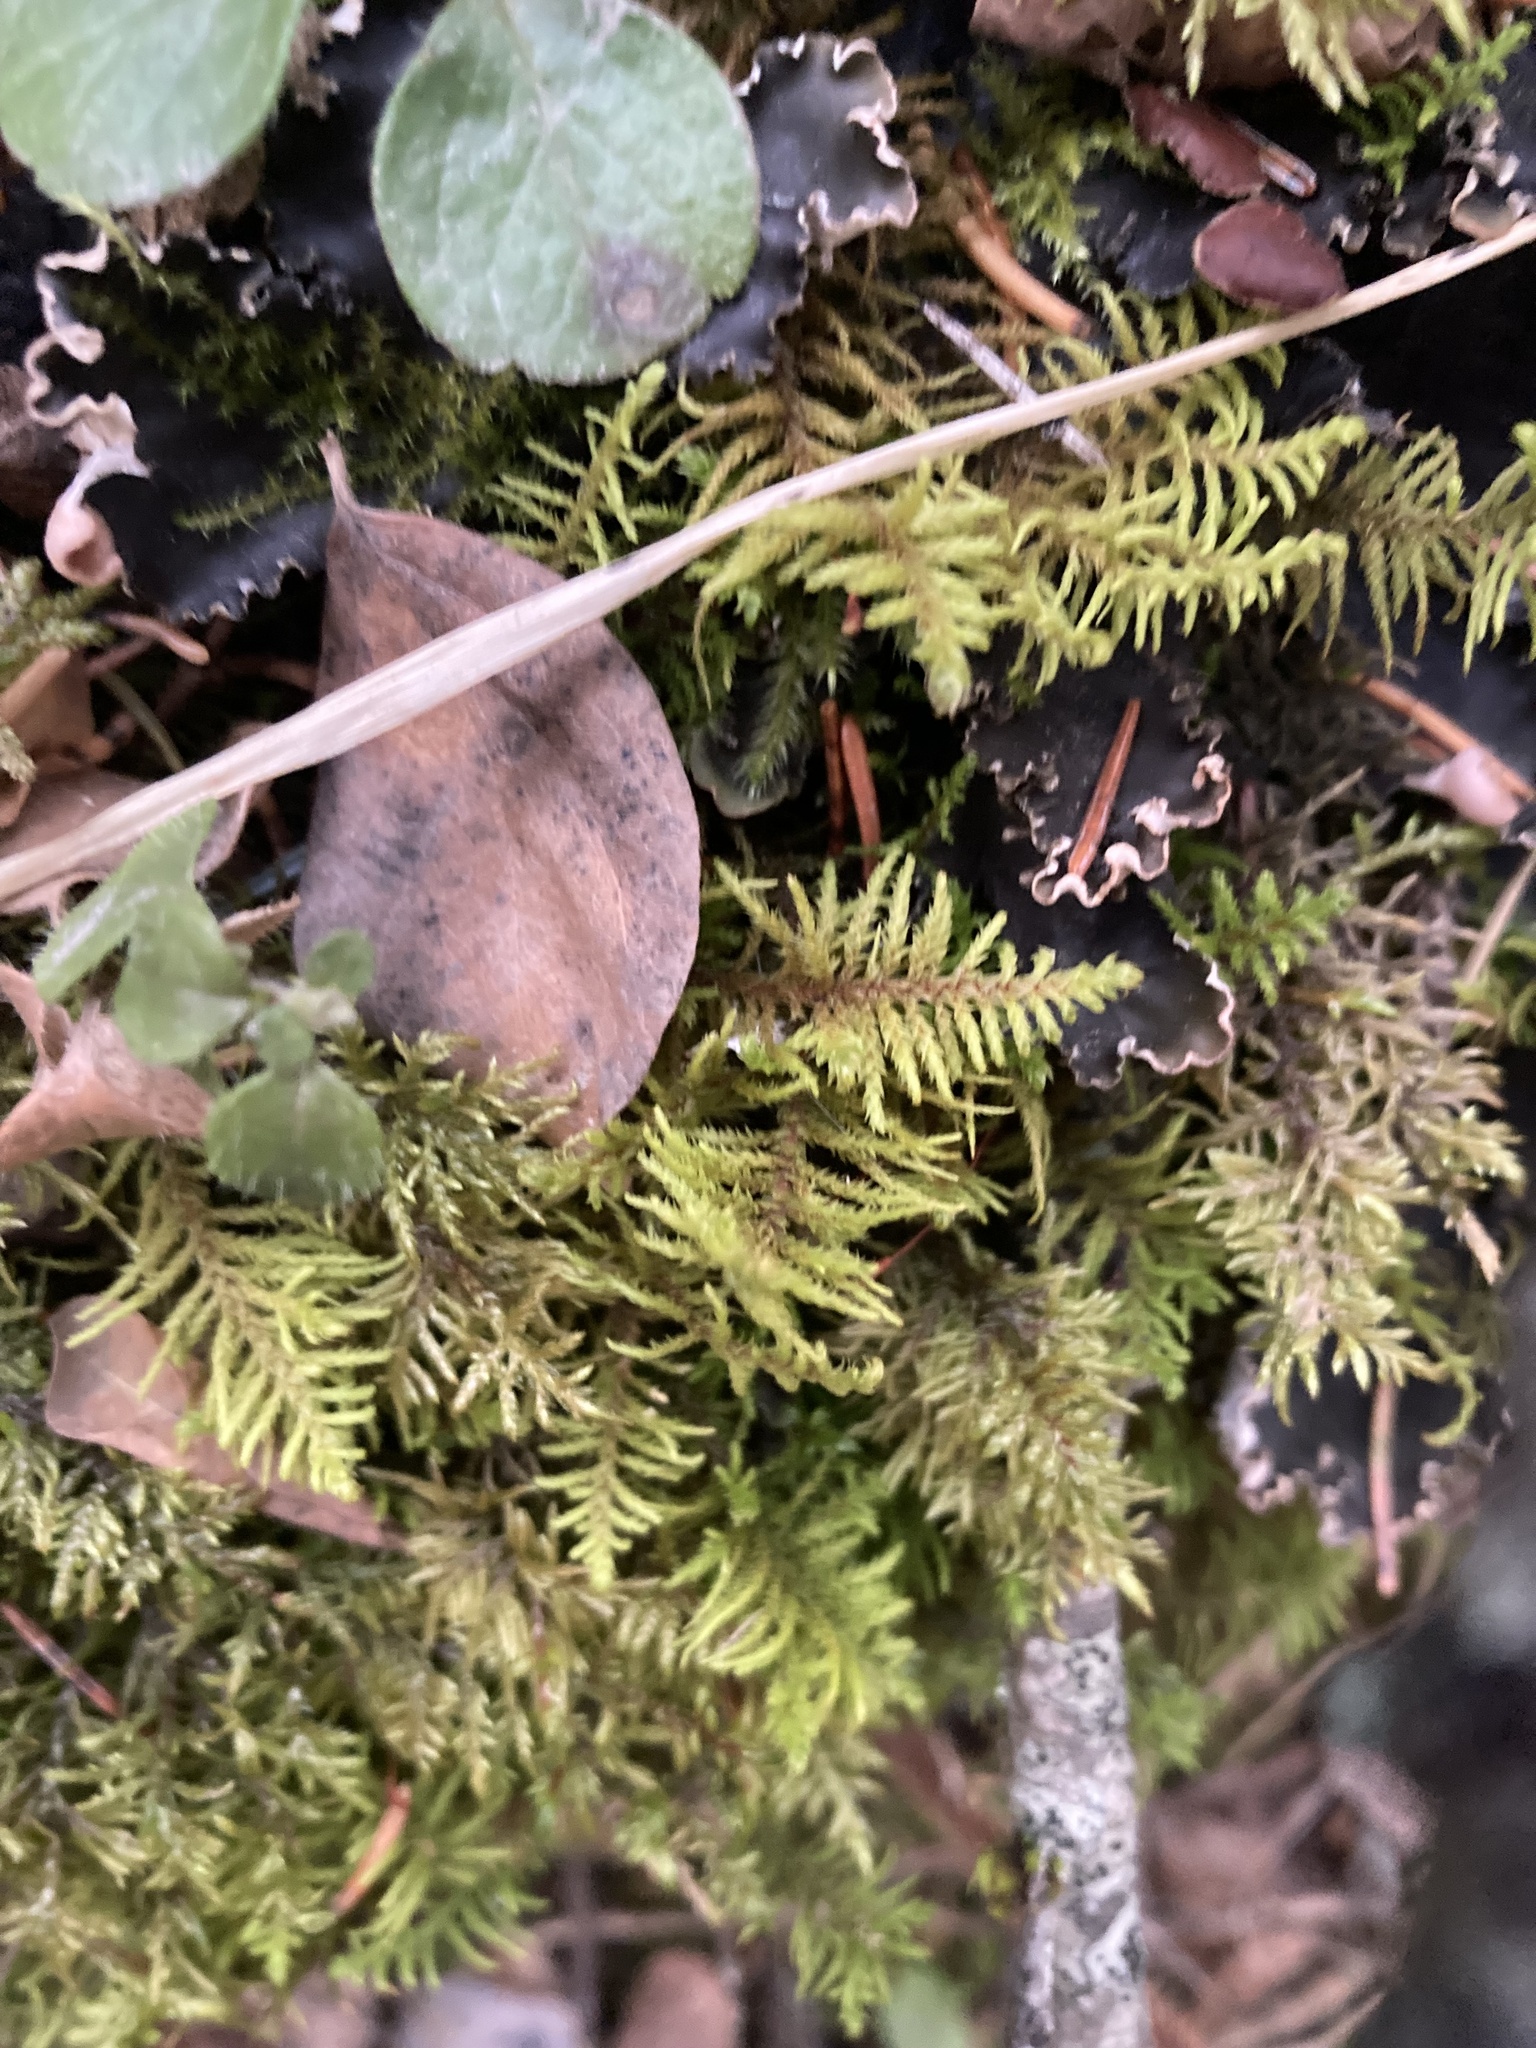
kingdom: Plantae
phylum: Bryophyta
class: Bryopsida
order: Hypnales
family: Thuidiaceae
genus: Abietinella
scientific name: Abietinella abietina
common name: Wiry fern moss
